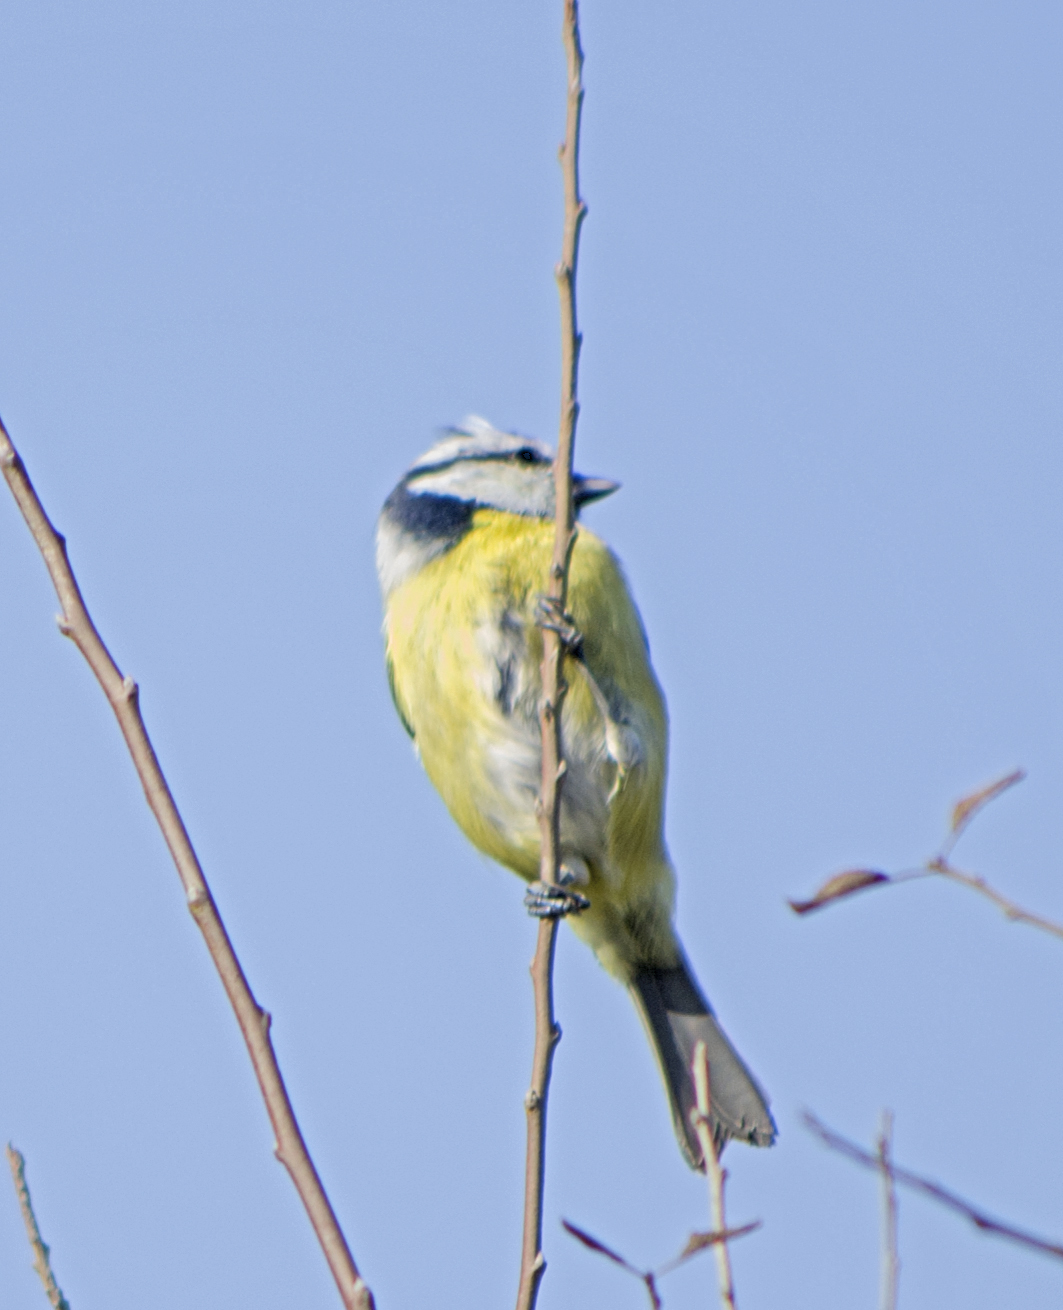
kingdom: Animalia
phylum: Chordata
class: Aves
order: Passeriformes
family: Paridae
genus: Cyanistes
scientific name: Cyanistes caeruleus
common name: Eurasian blue tit
